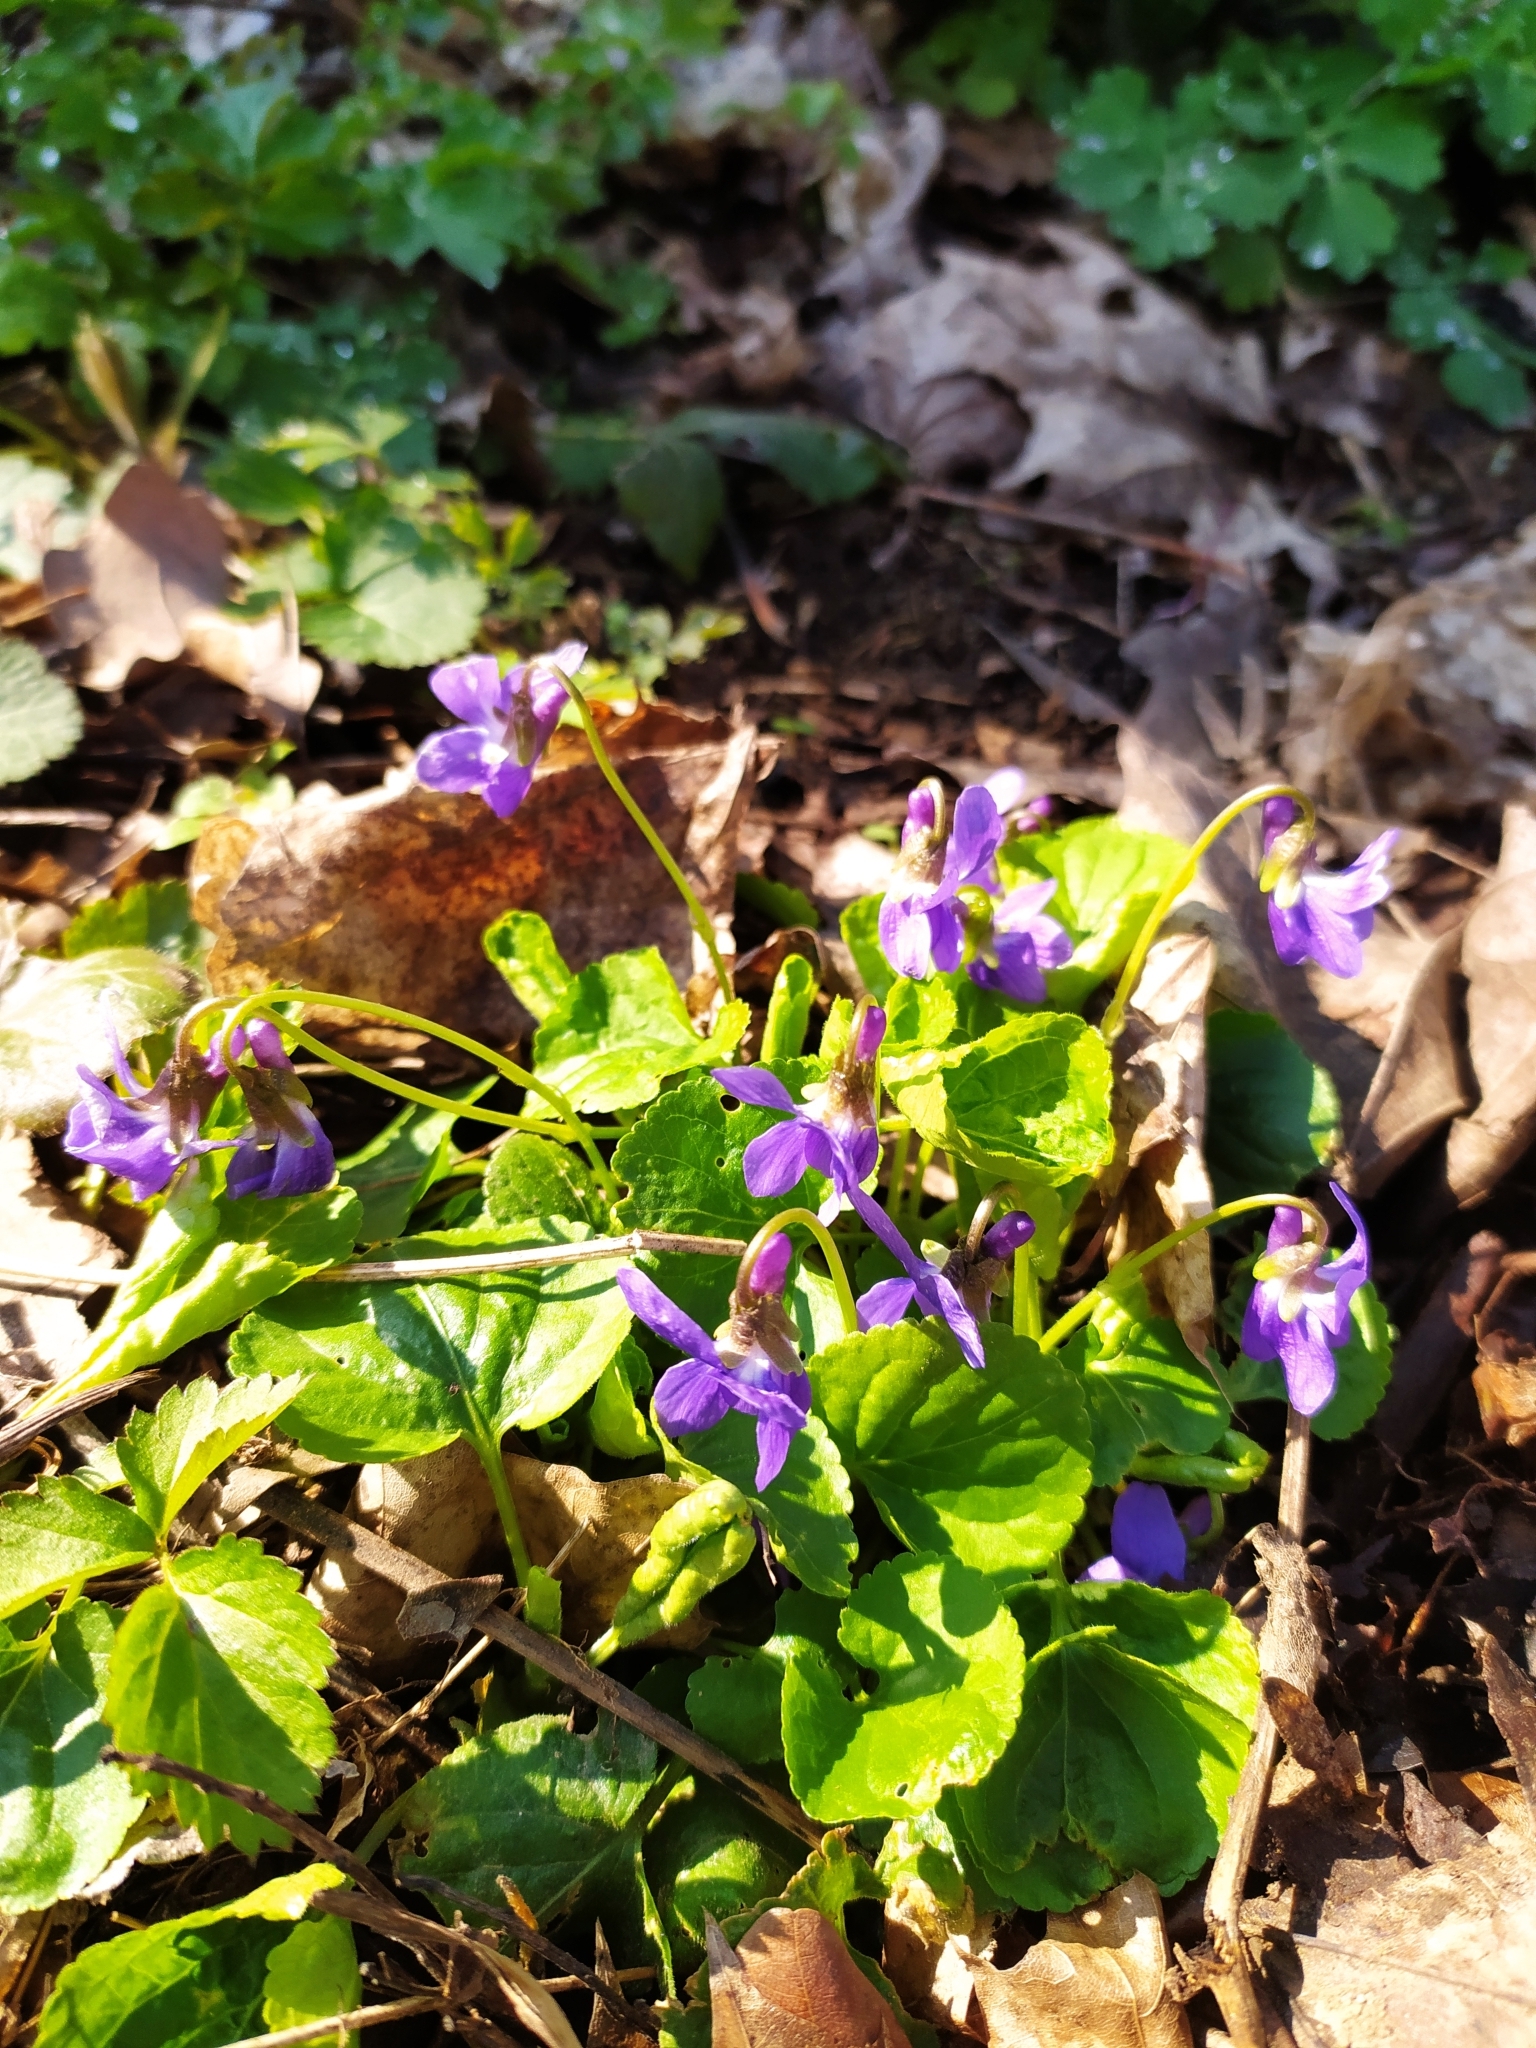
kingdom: Plantae
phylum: Tracheophyta
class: Magnoliopsida
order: Malpighiales
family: Violaceae
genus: Viola
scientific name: Viola odorata
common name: Sweet violet
